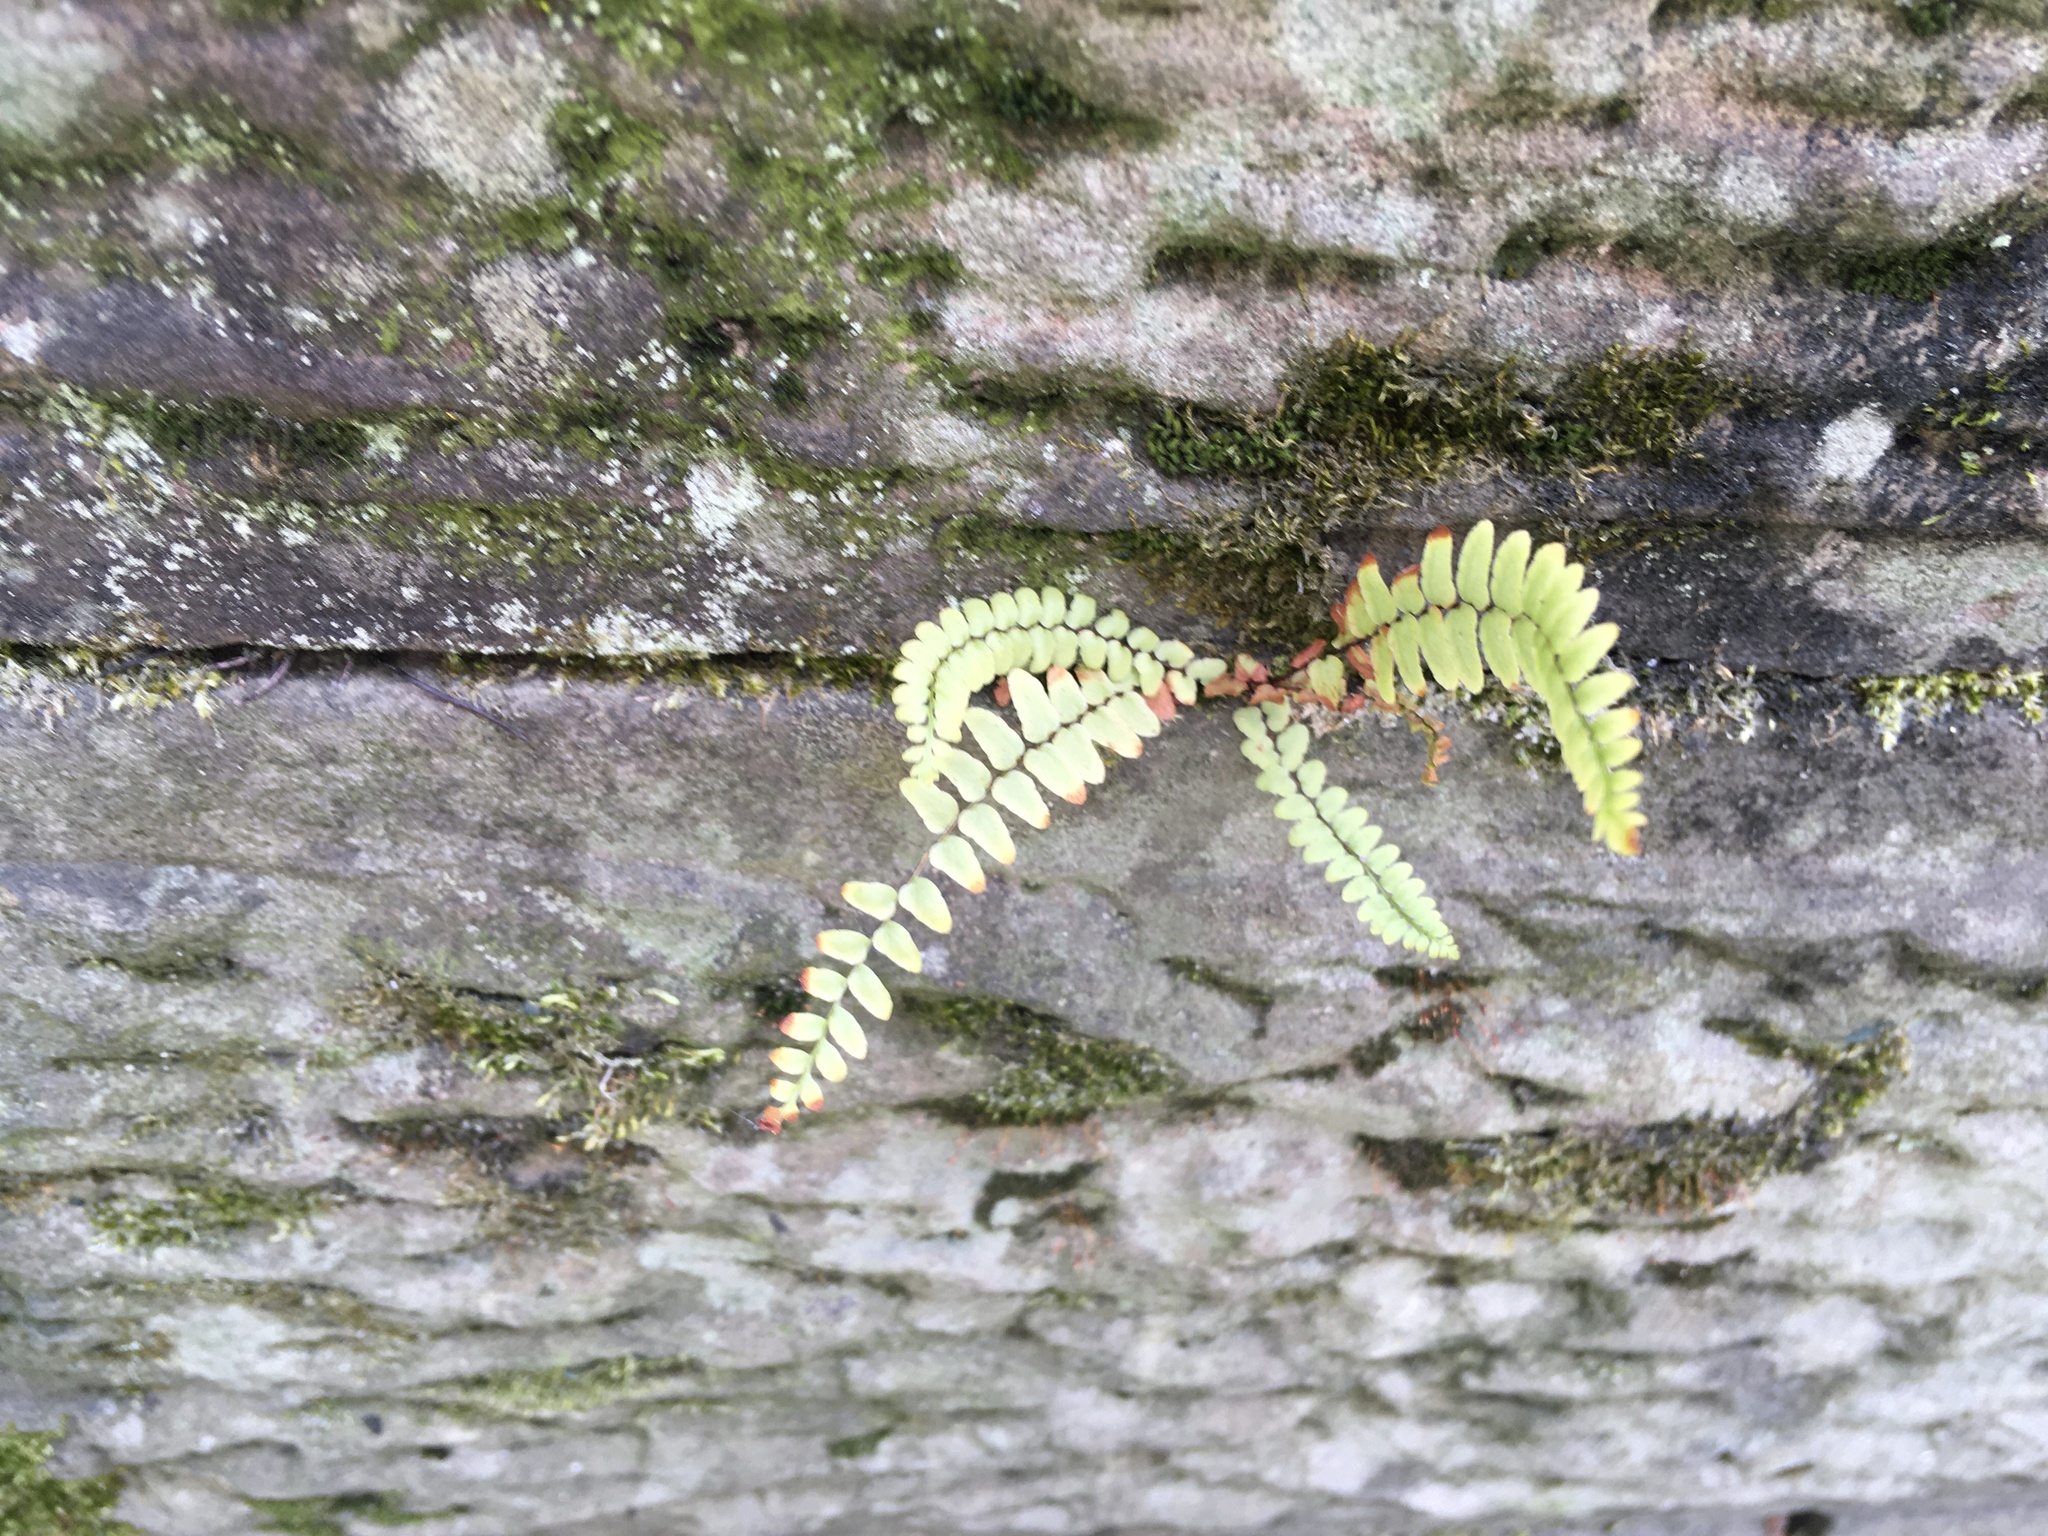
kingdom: Plantae
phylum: Tracheophyta
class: Polypodiopsida
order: Polypodiales
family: Aspleniaceae
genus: Asplenium
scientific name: Asplenium platyneuron
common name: Ebony spleenwort
